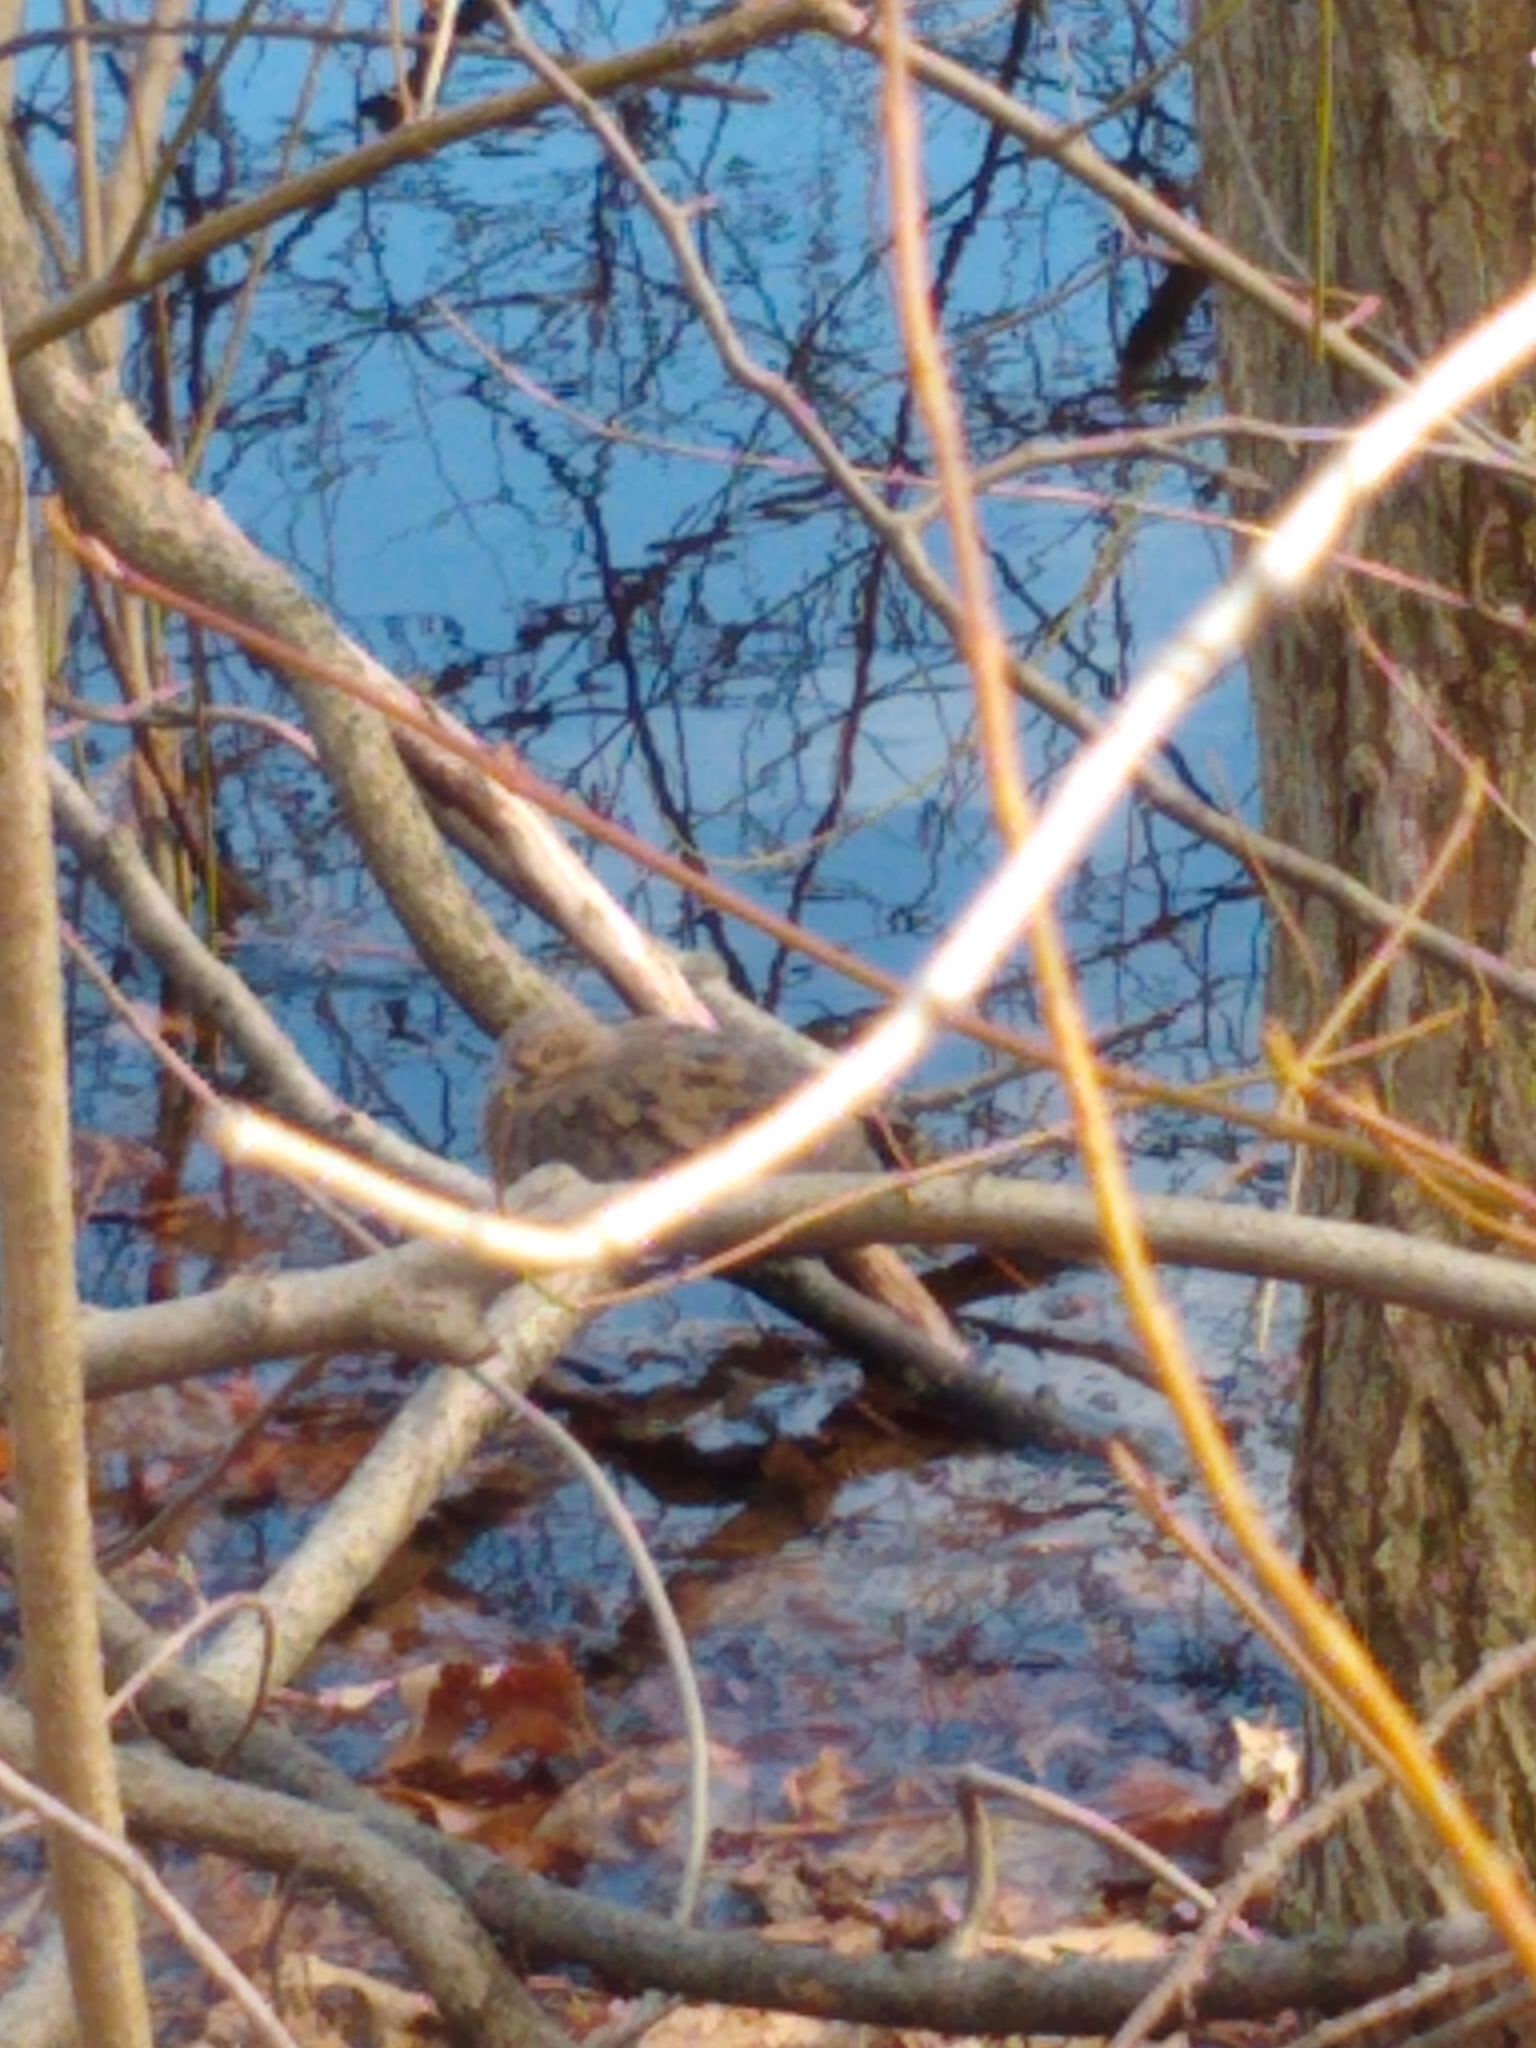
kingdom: Animalia
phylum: Chordata
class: Aves
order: Columbiformes
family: Columbidae
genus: Zenaida
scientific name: Zenaida macroura
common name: Mourning dove
